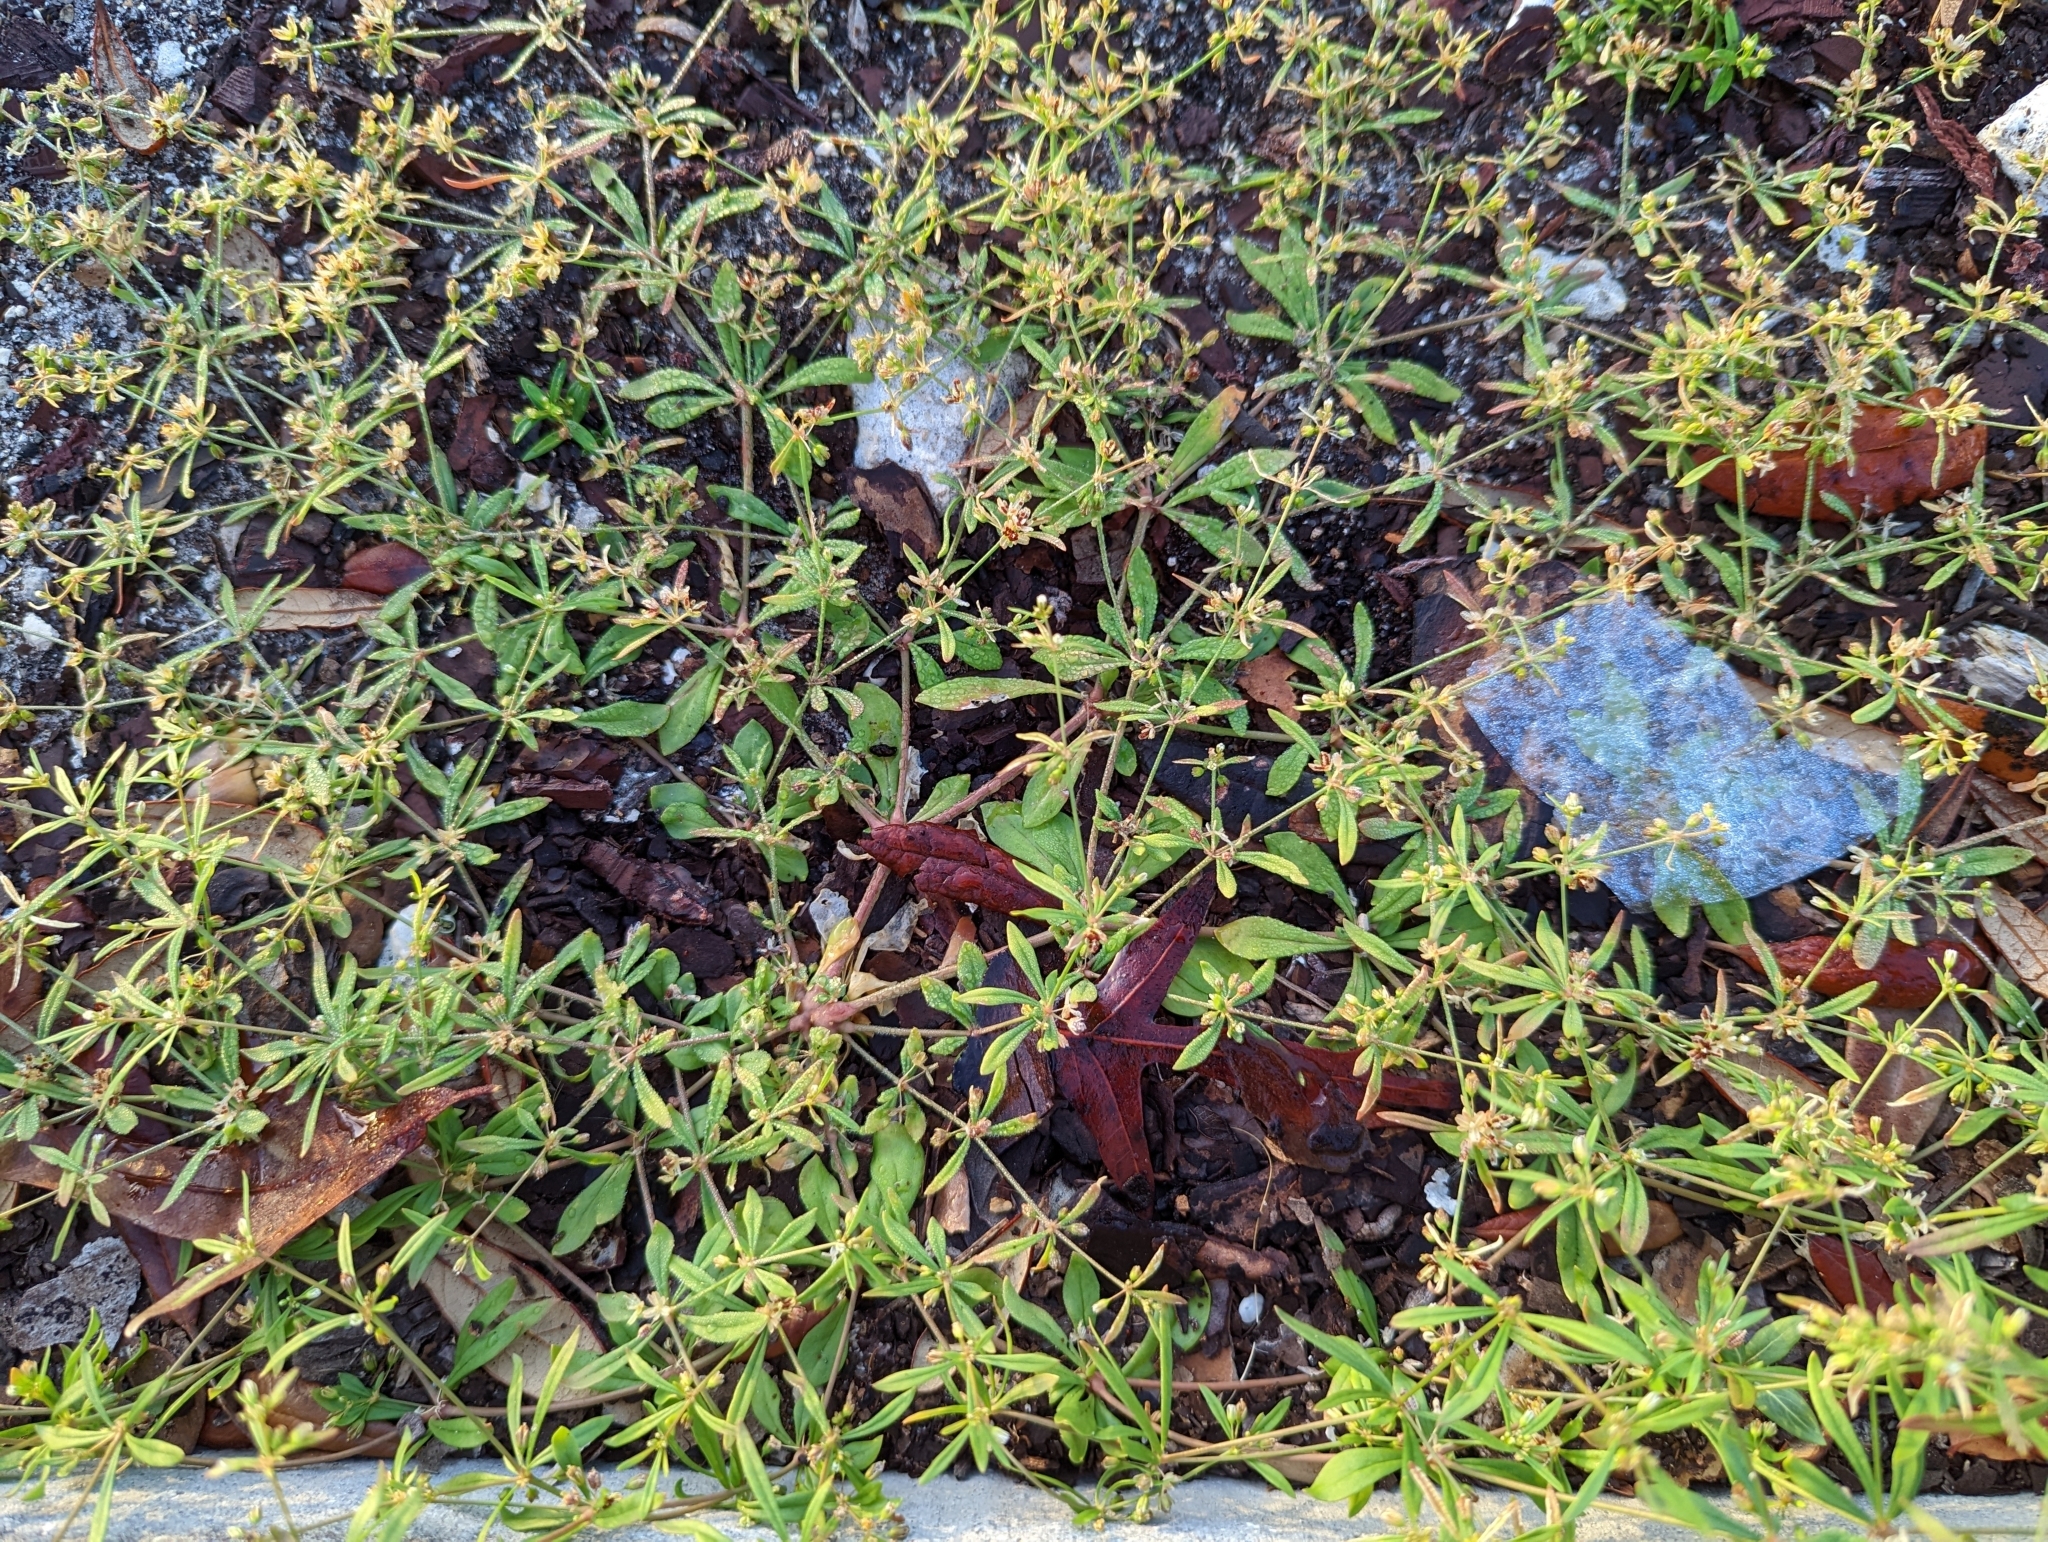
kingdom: Plantae
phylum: Tracheophyta
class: Magnoliopsida
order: Caryophyllales
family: Molluginaceae
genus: Mollugo
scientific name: Mollugo verticillata
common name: Green carpetweed
